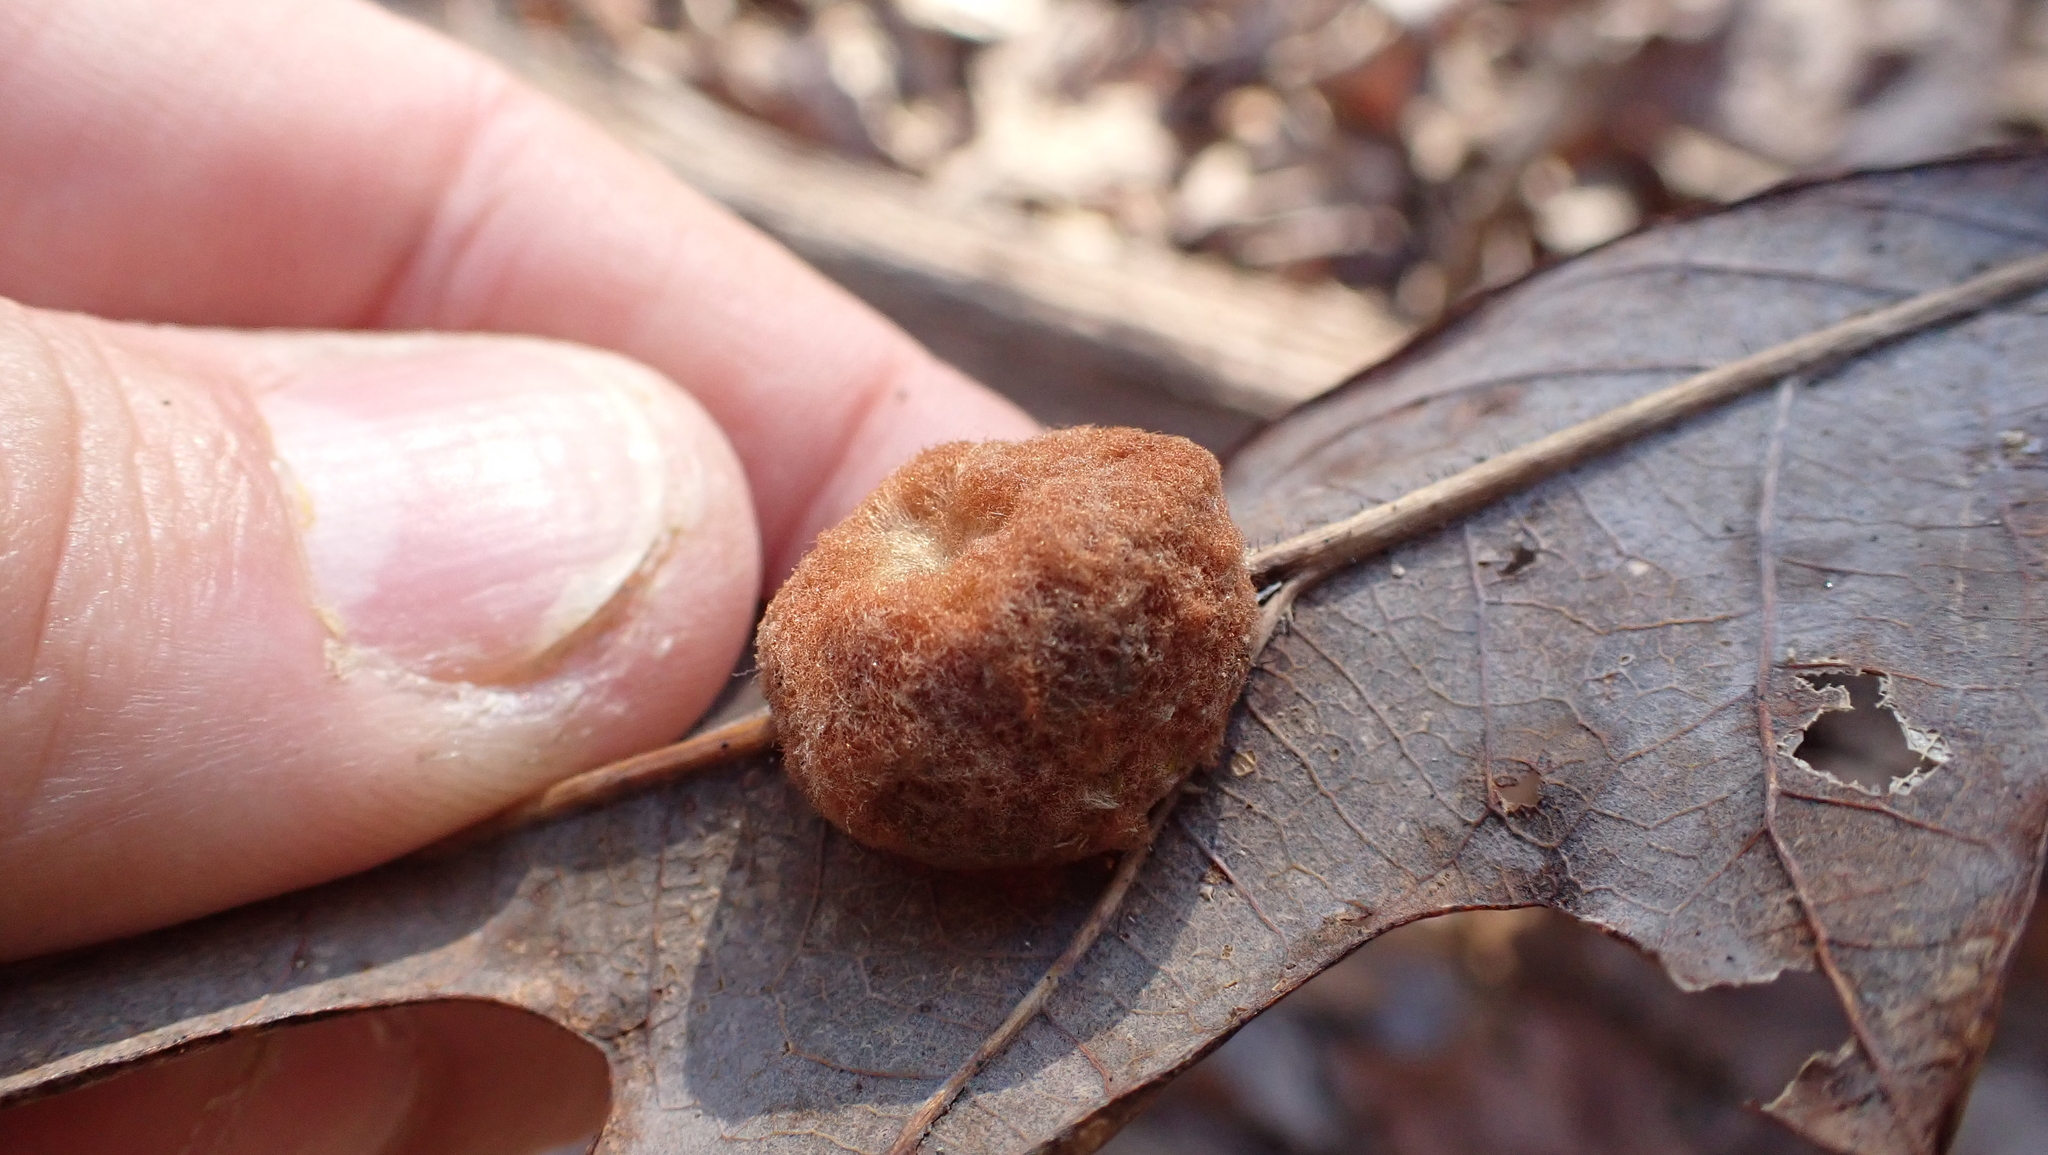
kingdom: Animalia
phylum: Arthropoda
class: Insecta
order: Hymenoptera
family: Cynipidae
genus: Andricus
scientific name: Andricus quercusflocci
